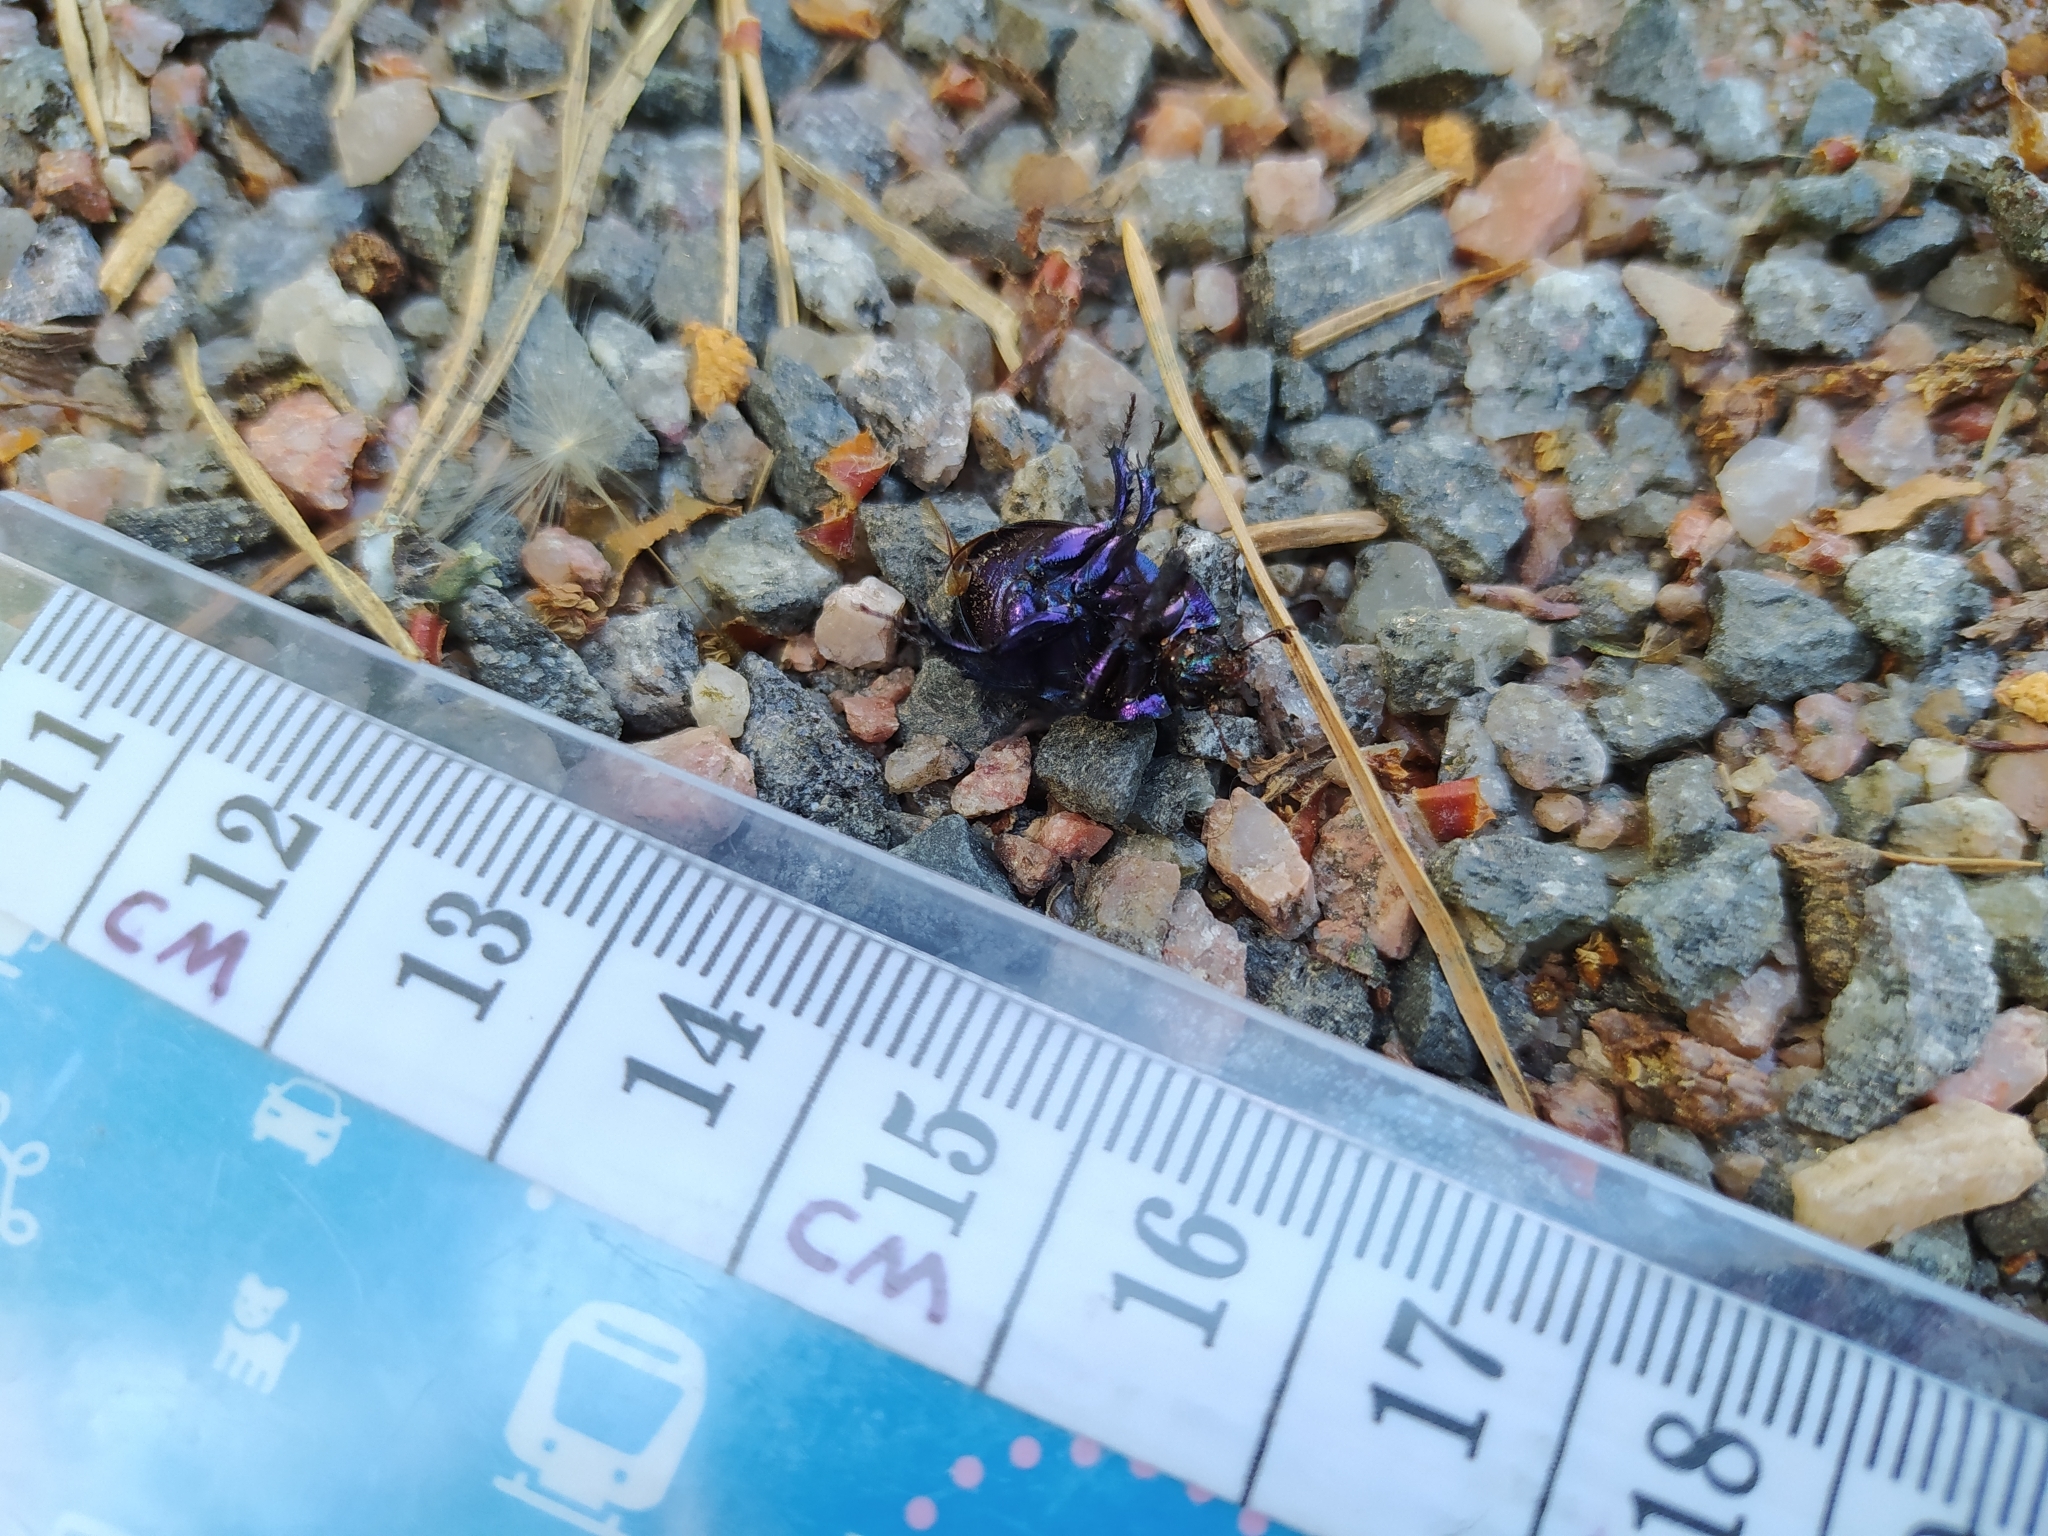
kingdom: Animalia
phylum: Arthropoda
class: Insecta
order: Coleoptera
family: Geotrupidae
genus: Anoplotrupes
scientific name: Anoplotrupes stercorosus
